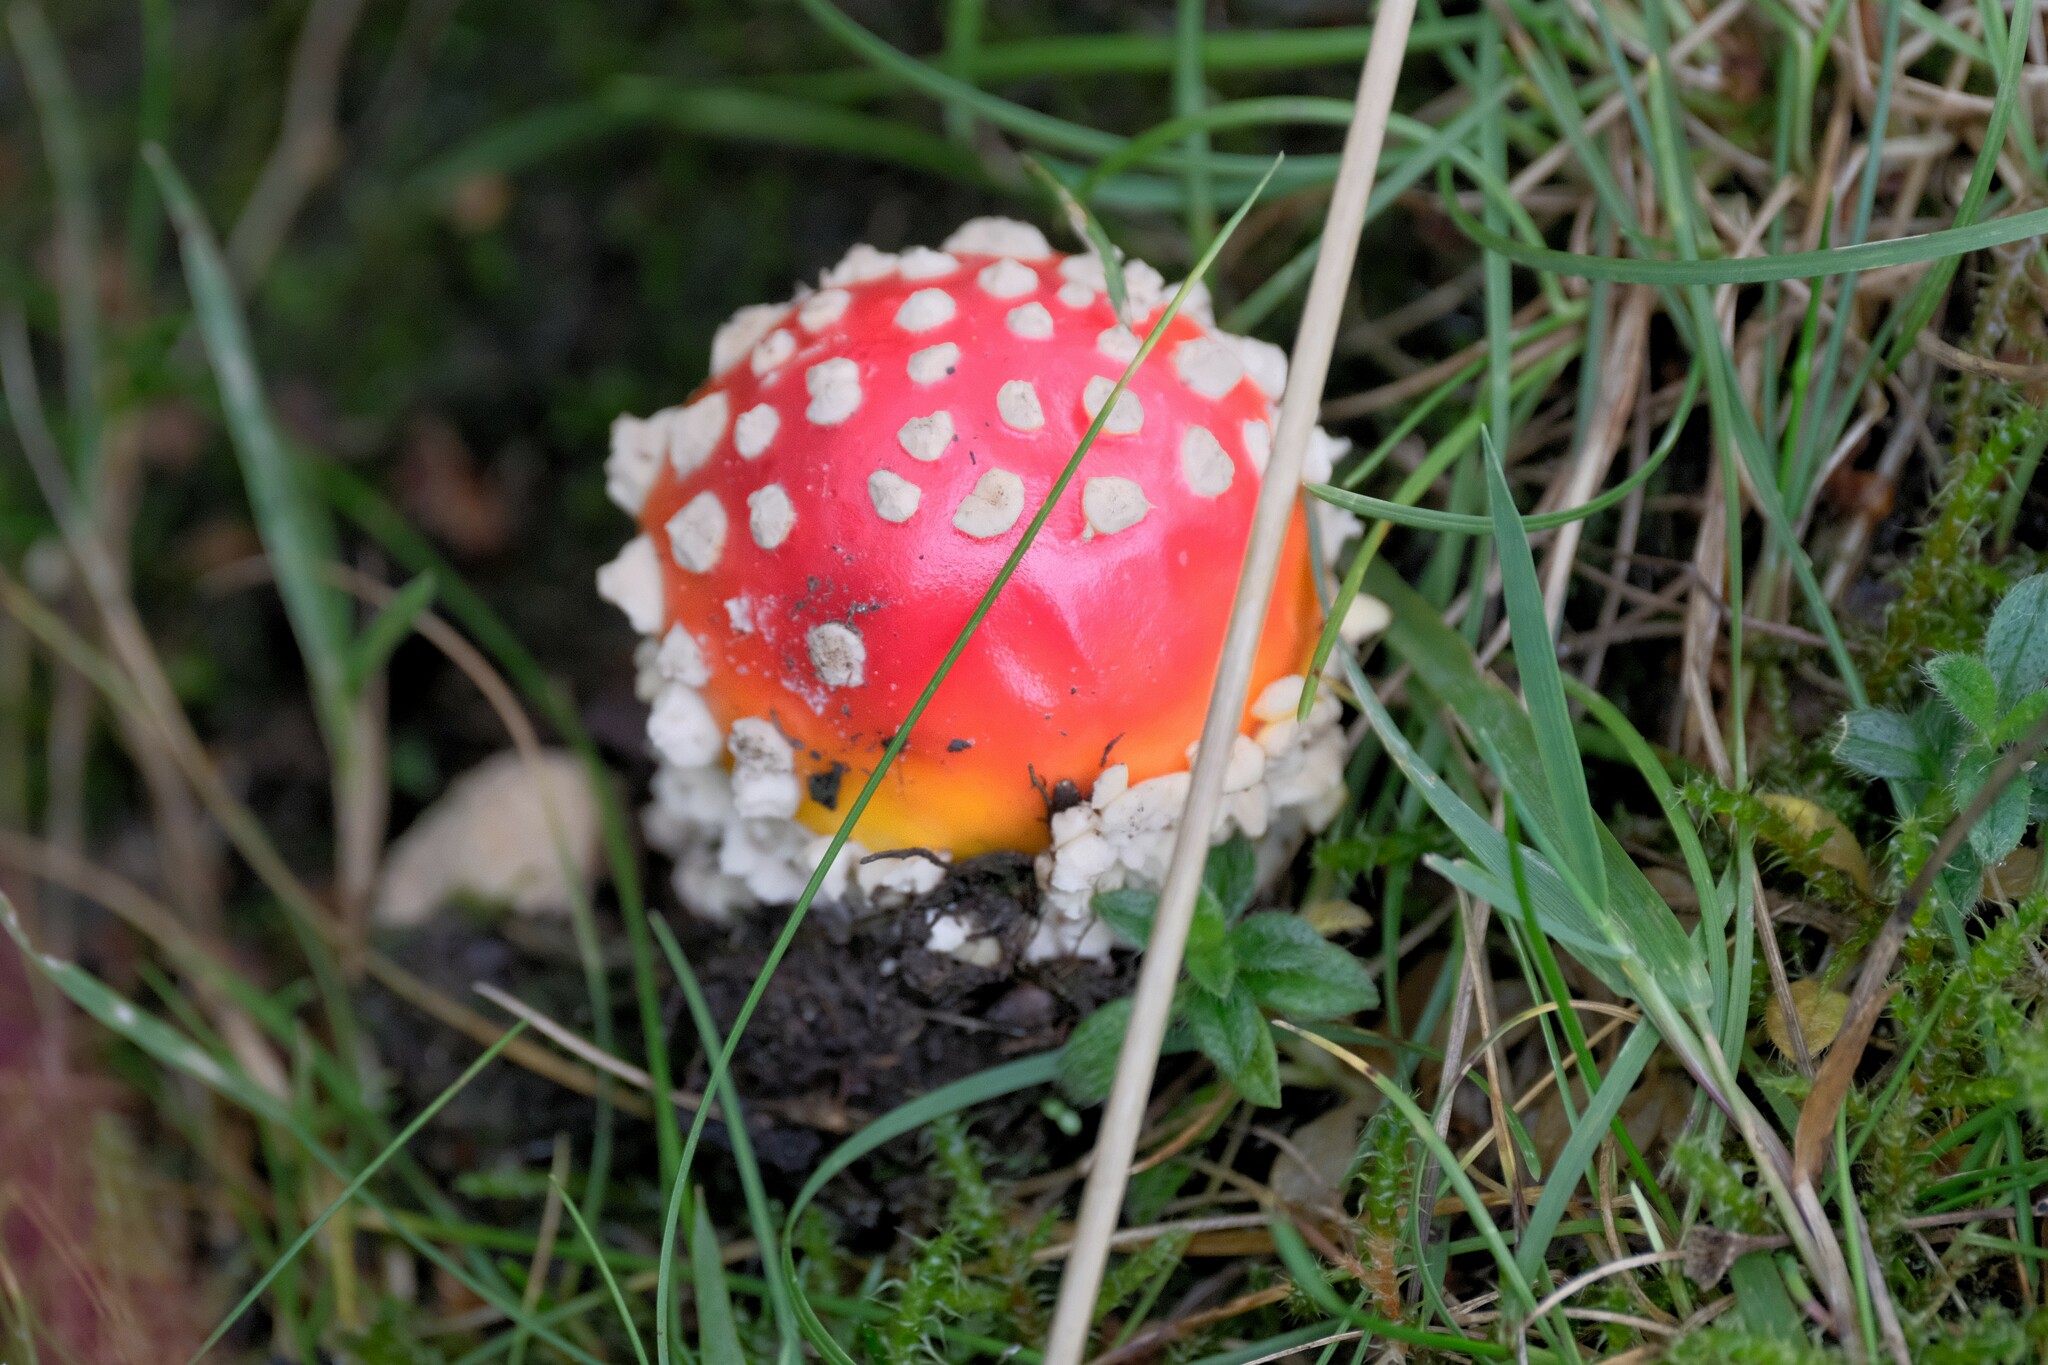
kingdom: Fungi
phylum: Basidiomycota
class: Agaricomycetes
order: Agaricales
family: Amanitaceae
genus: Amanita
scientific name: Amanita muscaria
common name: Fly agaric
